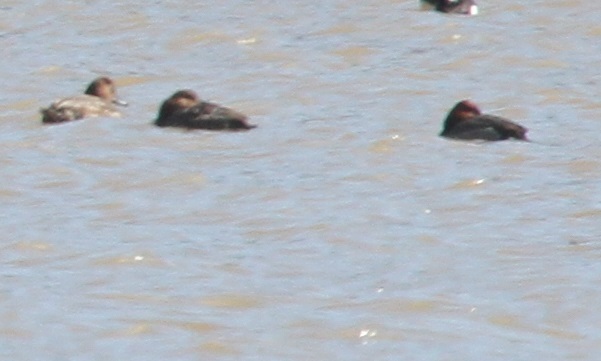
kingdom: Animalia
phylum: Chordata
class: Aves
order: Anseriformes
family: Anatidae
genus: Aythya
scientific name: Aythya ferina
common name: Common pochard
